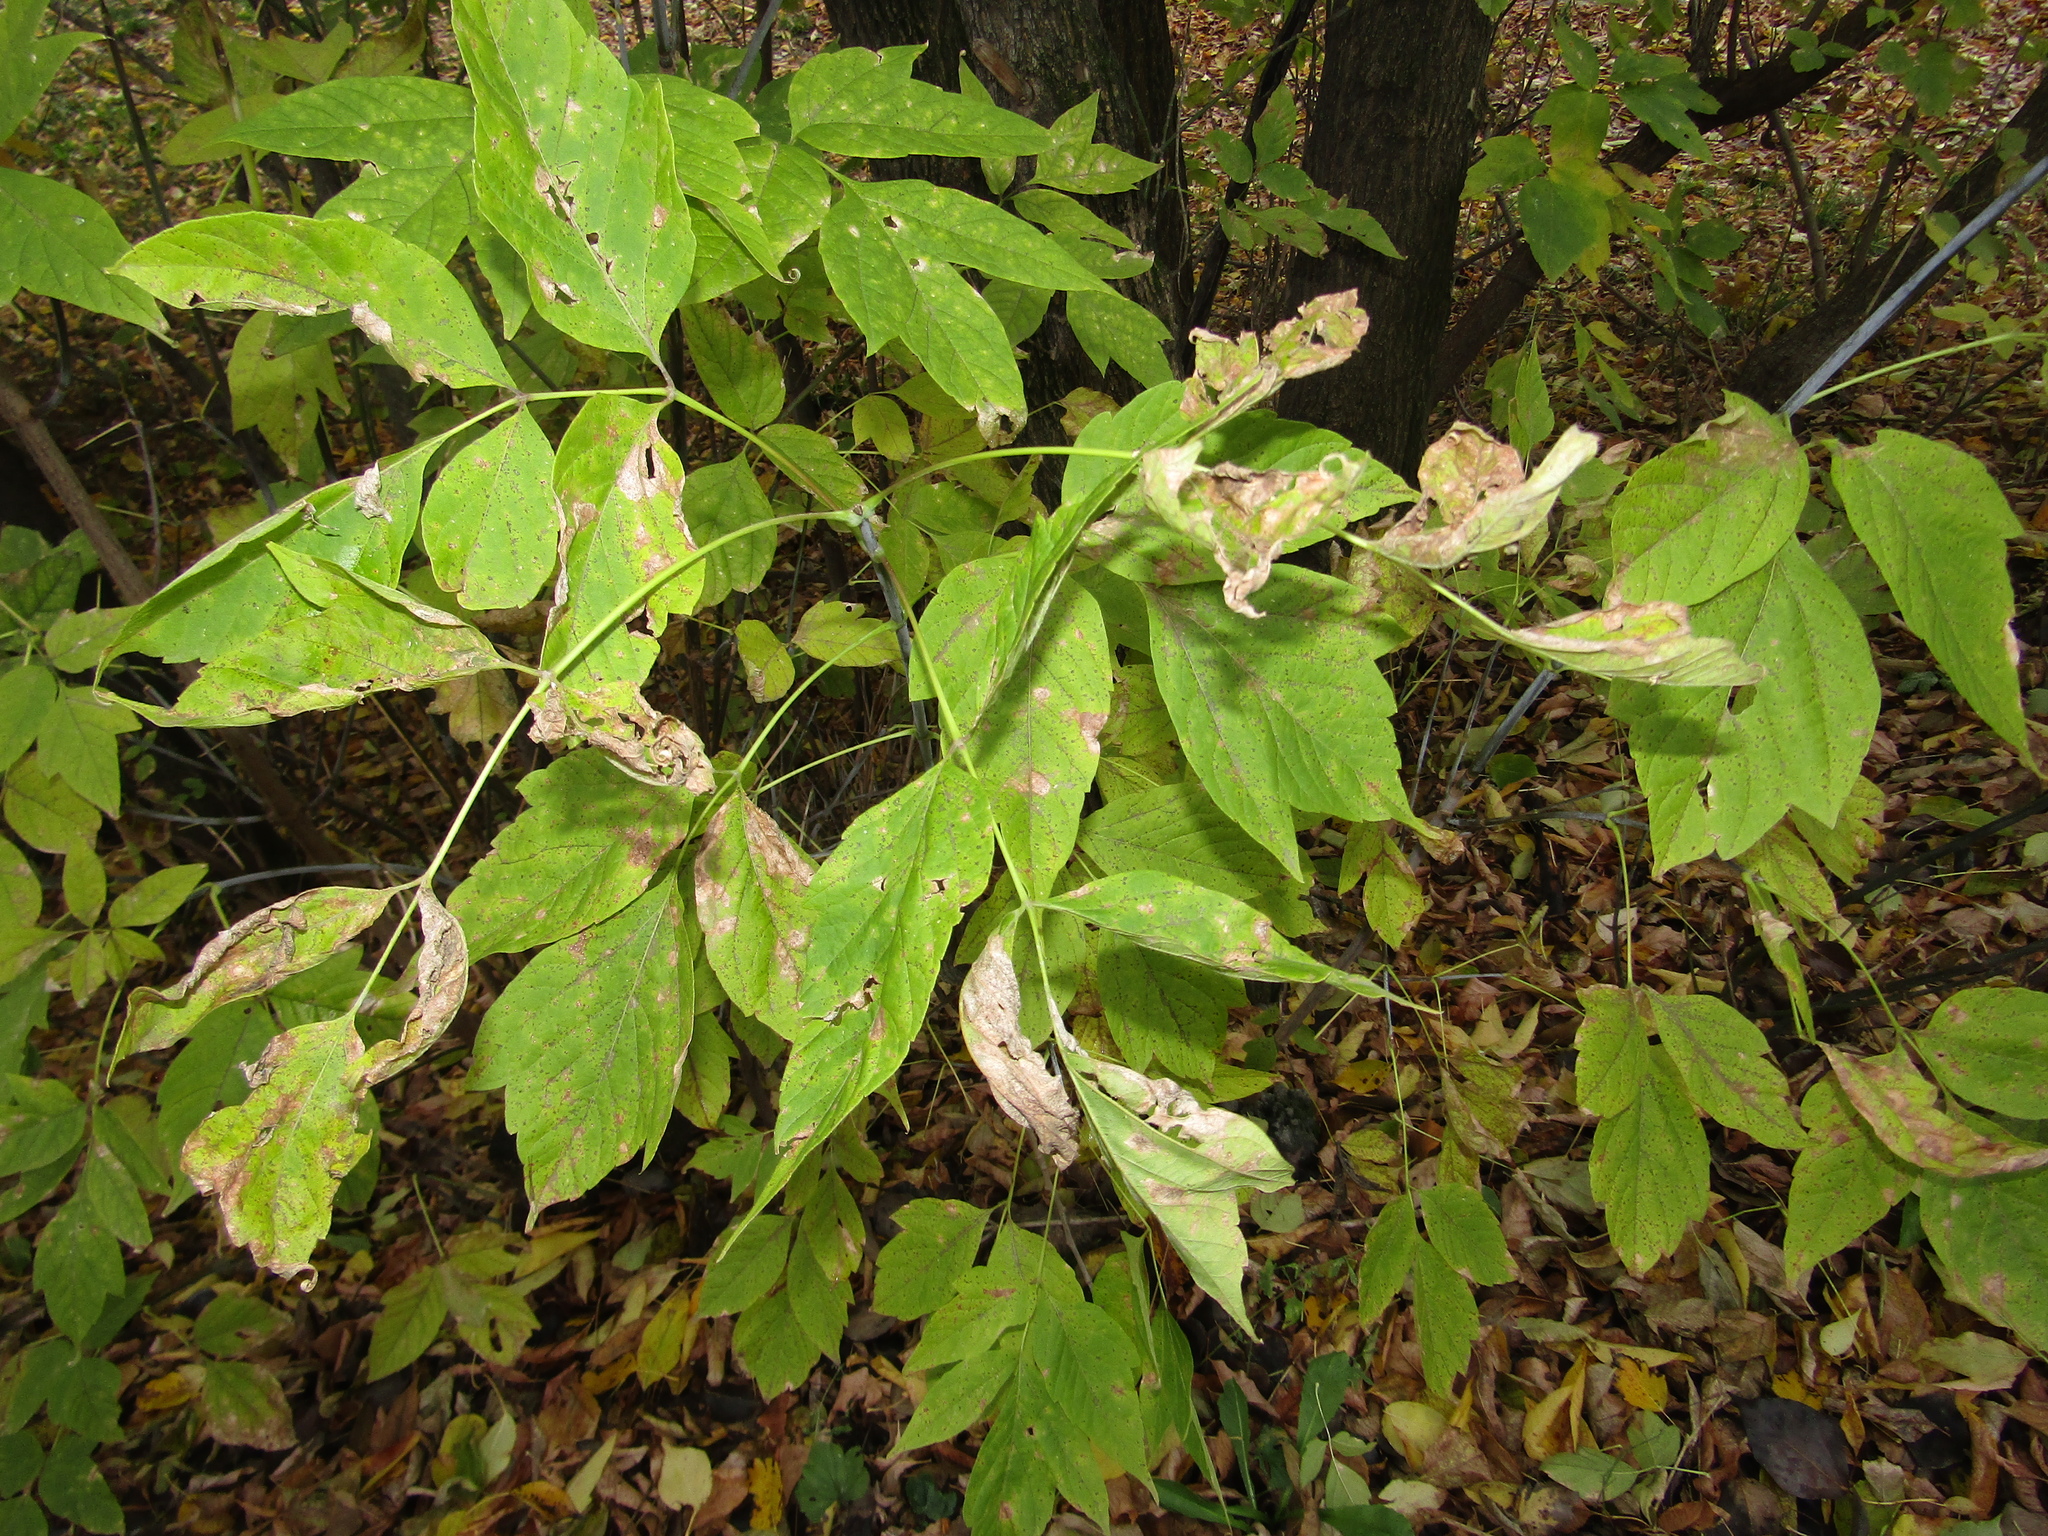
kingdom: Plantae
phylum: Tracheophyta
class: Magnoliopsida
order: Sapindales
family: Sapindaceae
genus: Acer
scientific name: Acer negundo
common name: Ashleaf maple
